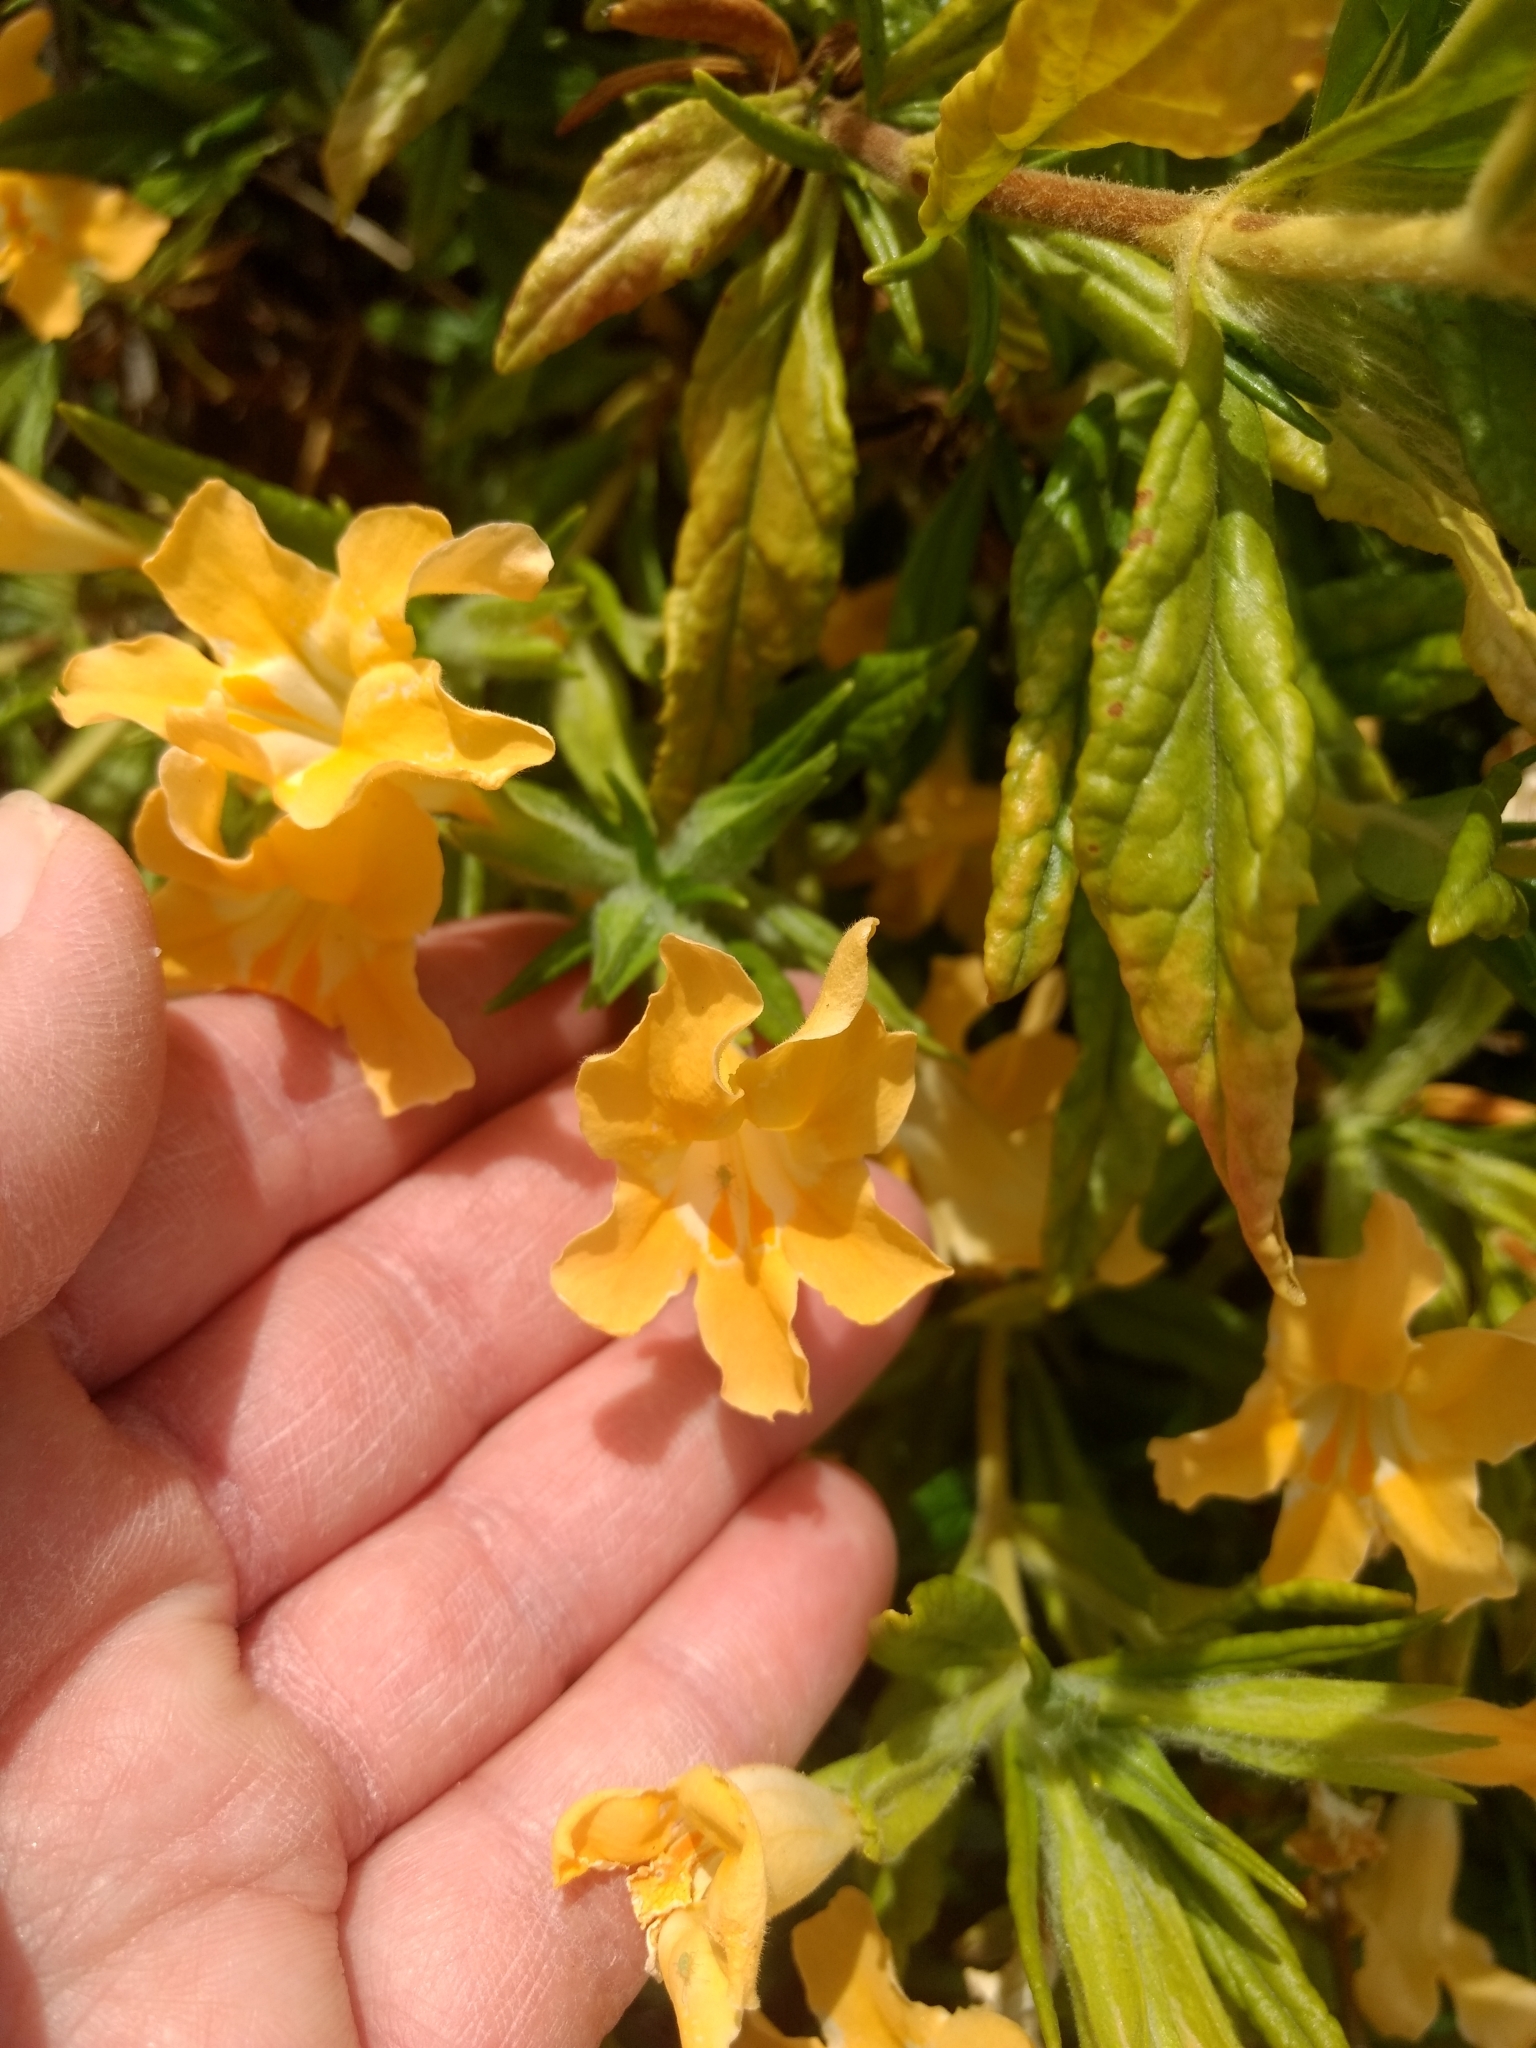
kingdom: Plantae
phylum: Tracheophyta
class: Magnoliopsida
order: Lamiales
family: Phrymaceae
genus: Diplacus
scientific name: Diplacus longiflorus
